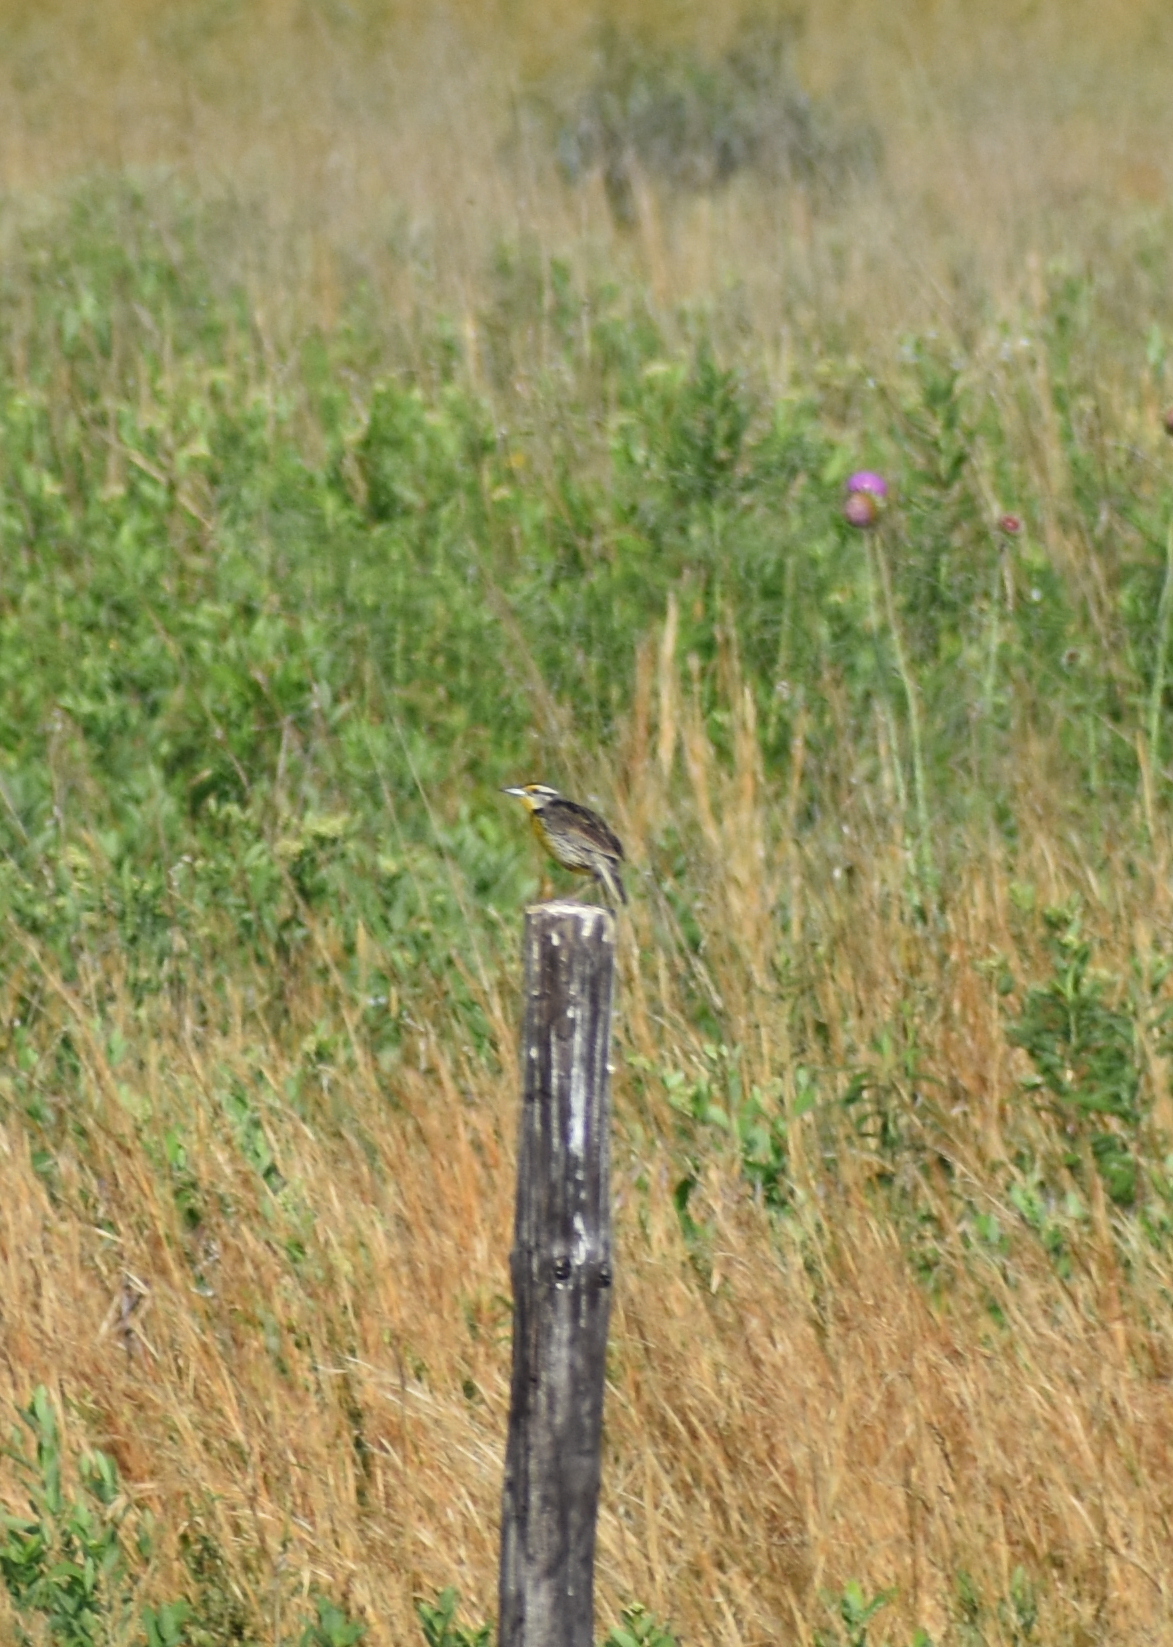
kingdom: Animalia
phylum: Chordata
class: Aves
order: Passeriformes
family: Icteridae
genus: Sturnella
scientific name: Sturnella magna
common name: Eastern meadowlark
